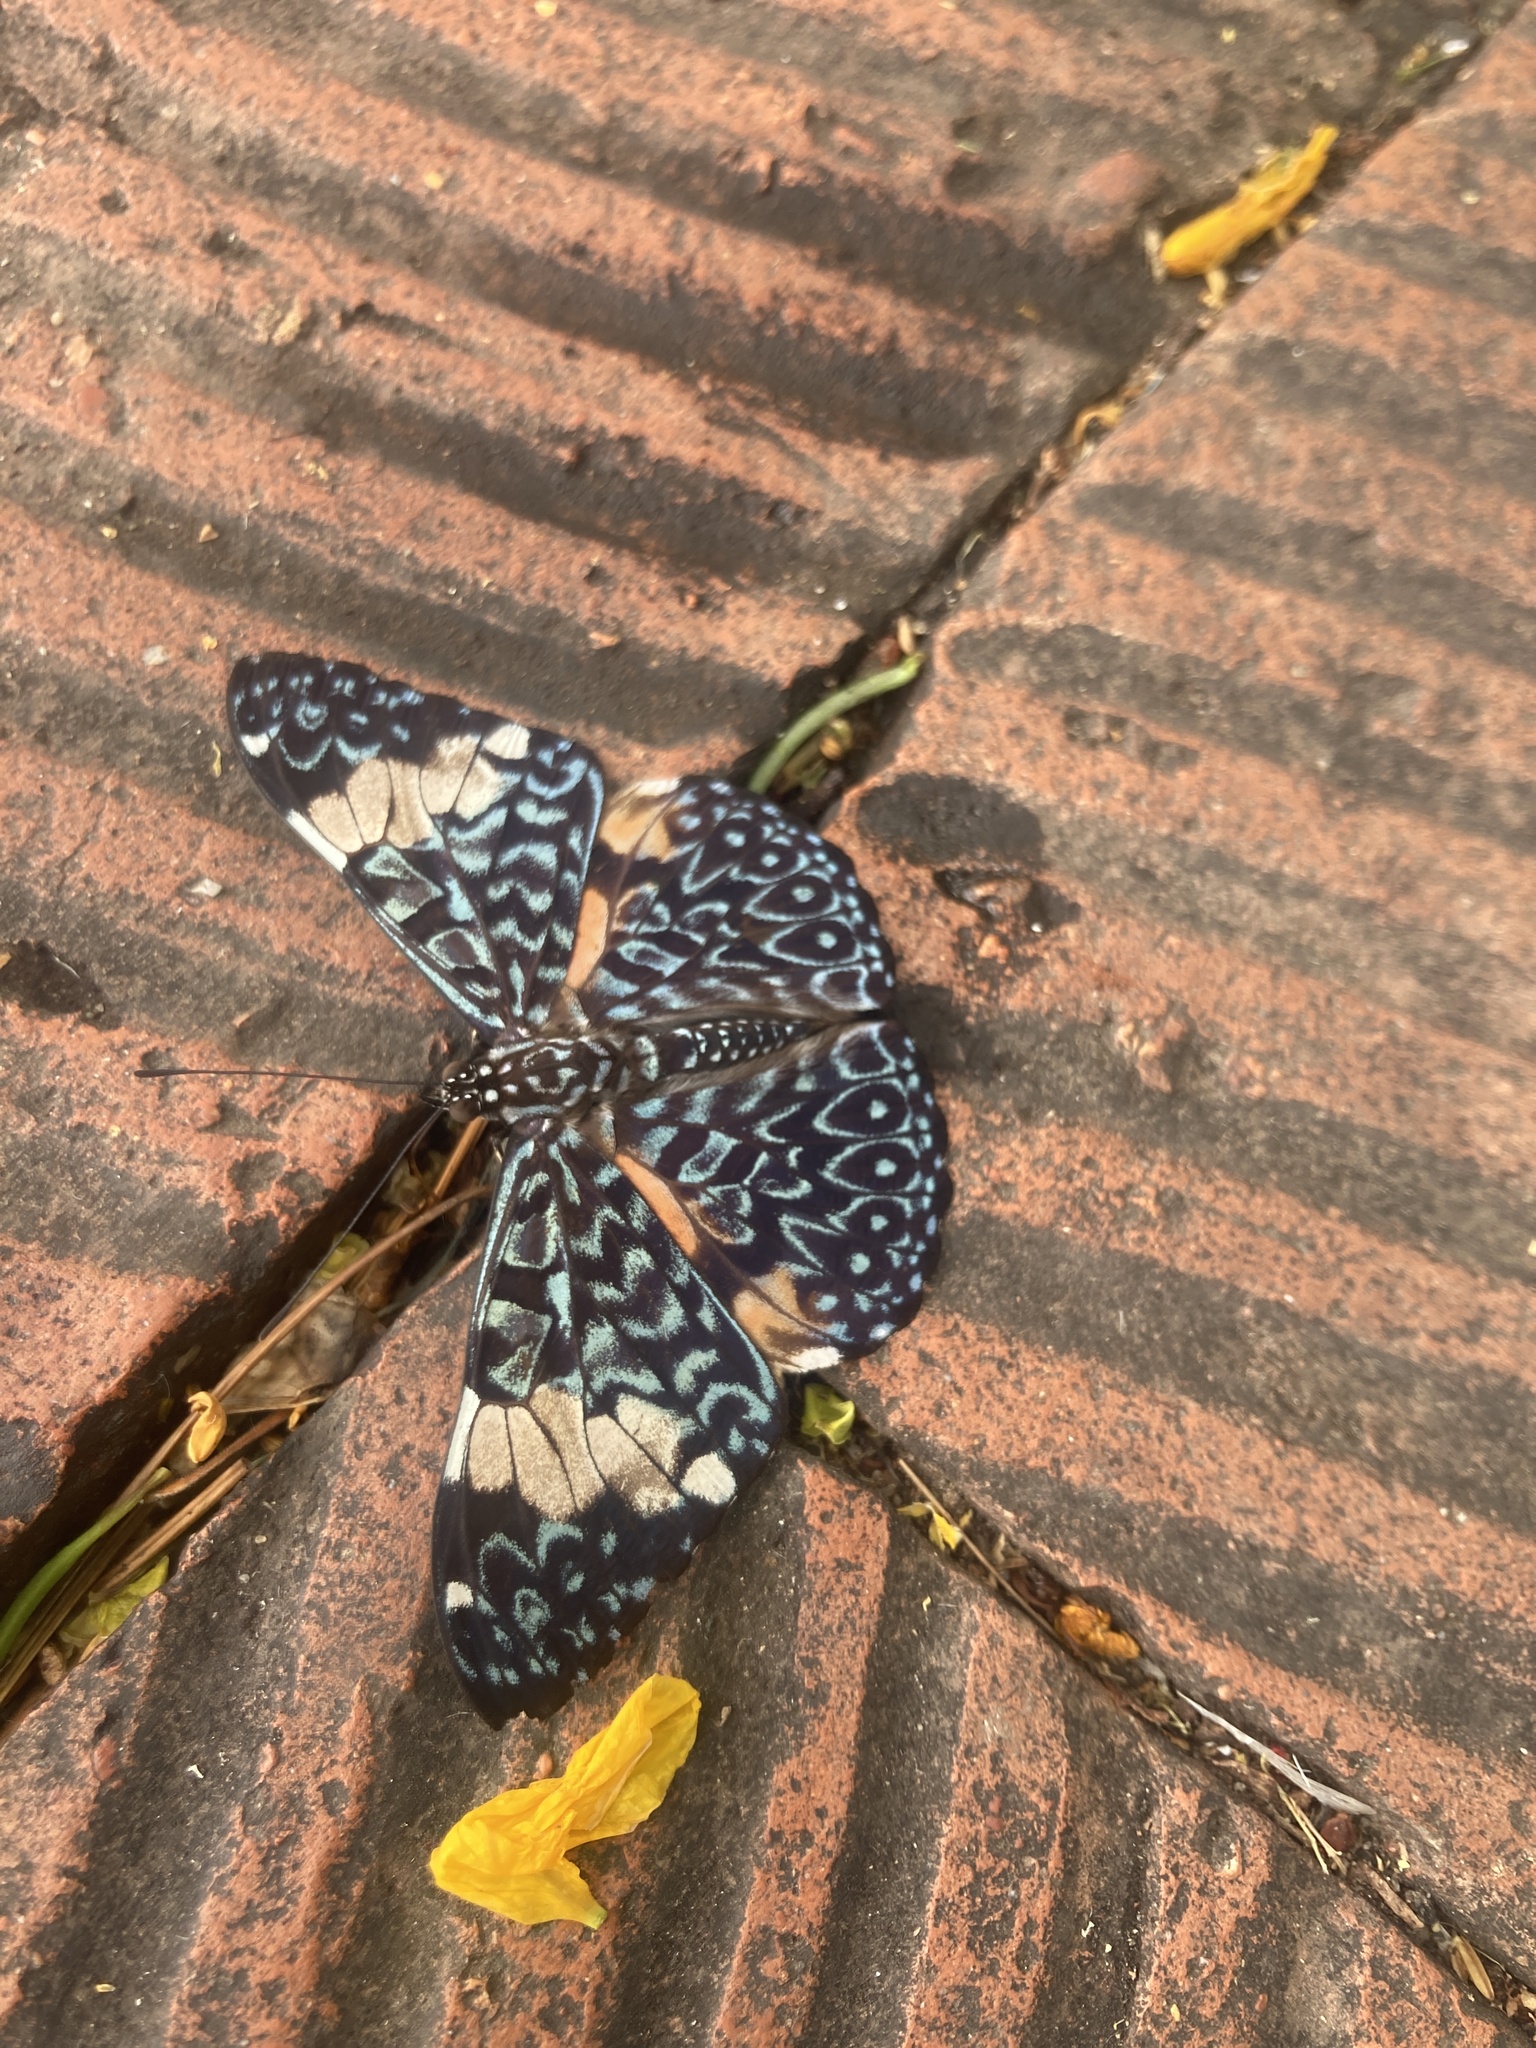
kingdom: Animalia
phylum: Arthropoda
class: Insecta
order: Lepidoptera
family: Nymphalidae
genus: Hamadryas
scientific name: Hamadryas amphinome
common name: Red cracker
